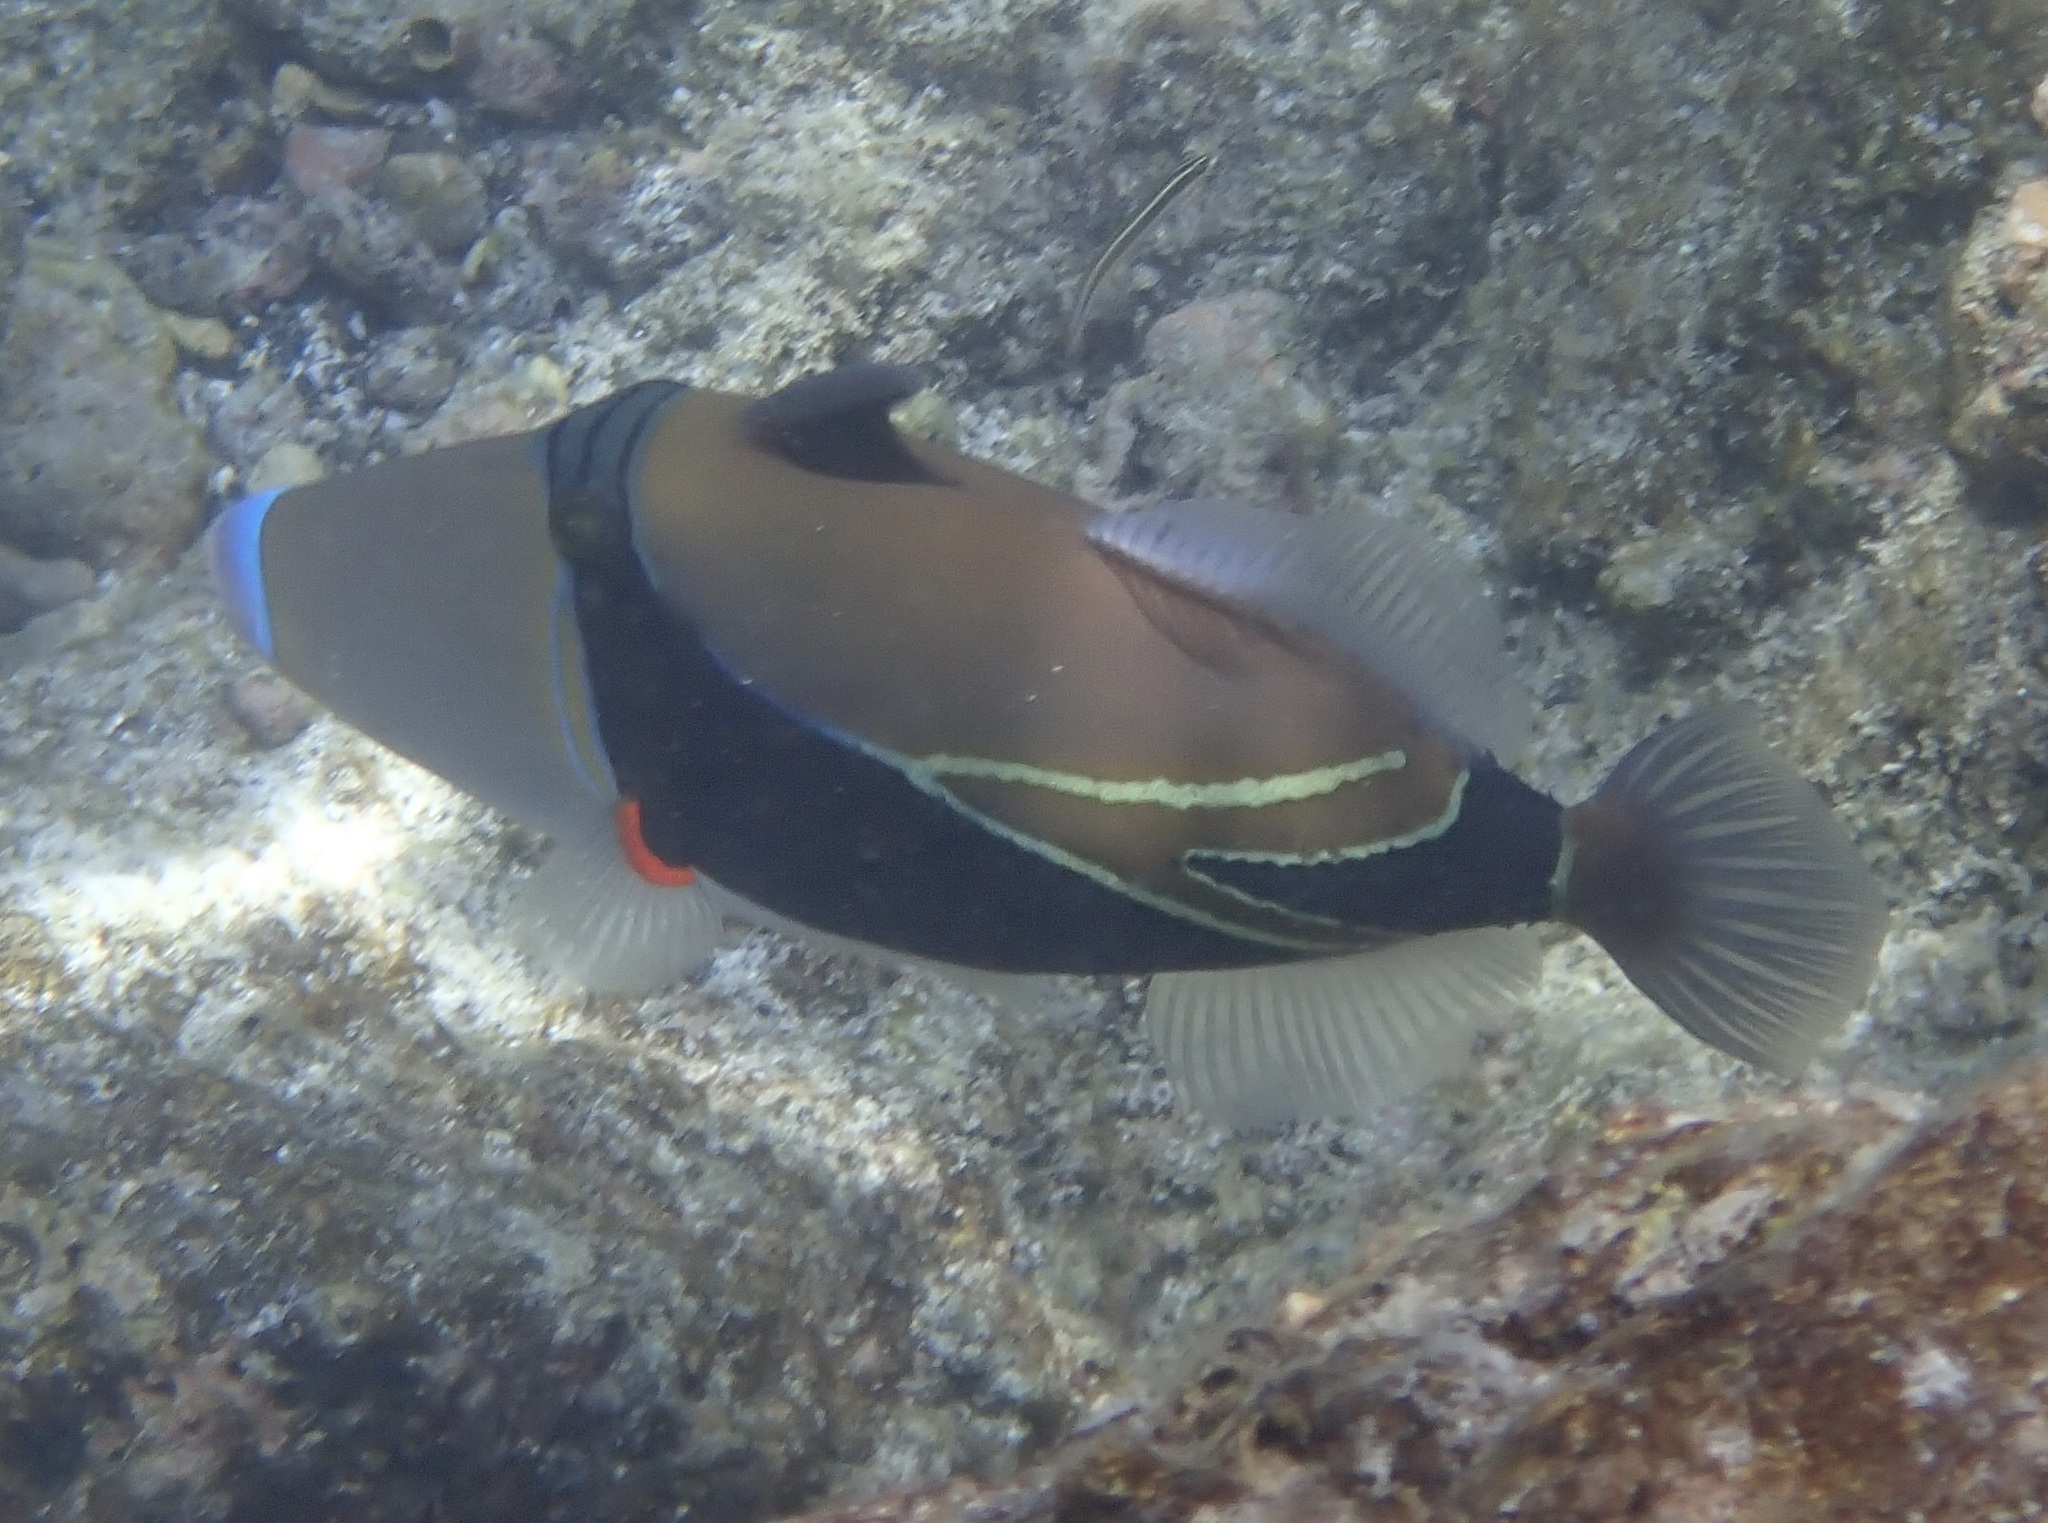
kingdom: Animalia
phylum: Chordata
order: Tetraodontiformes
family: Balistidae
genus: Rhinecanthus
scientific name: Rhinecanthus rectangulus
